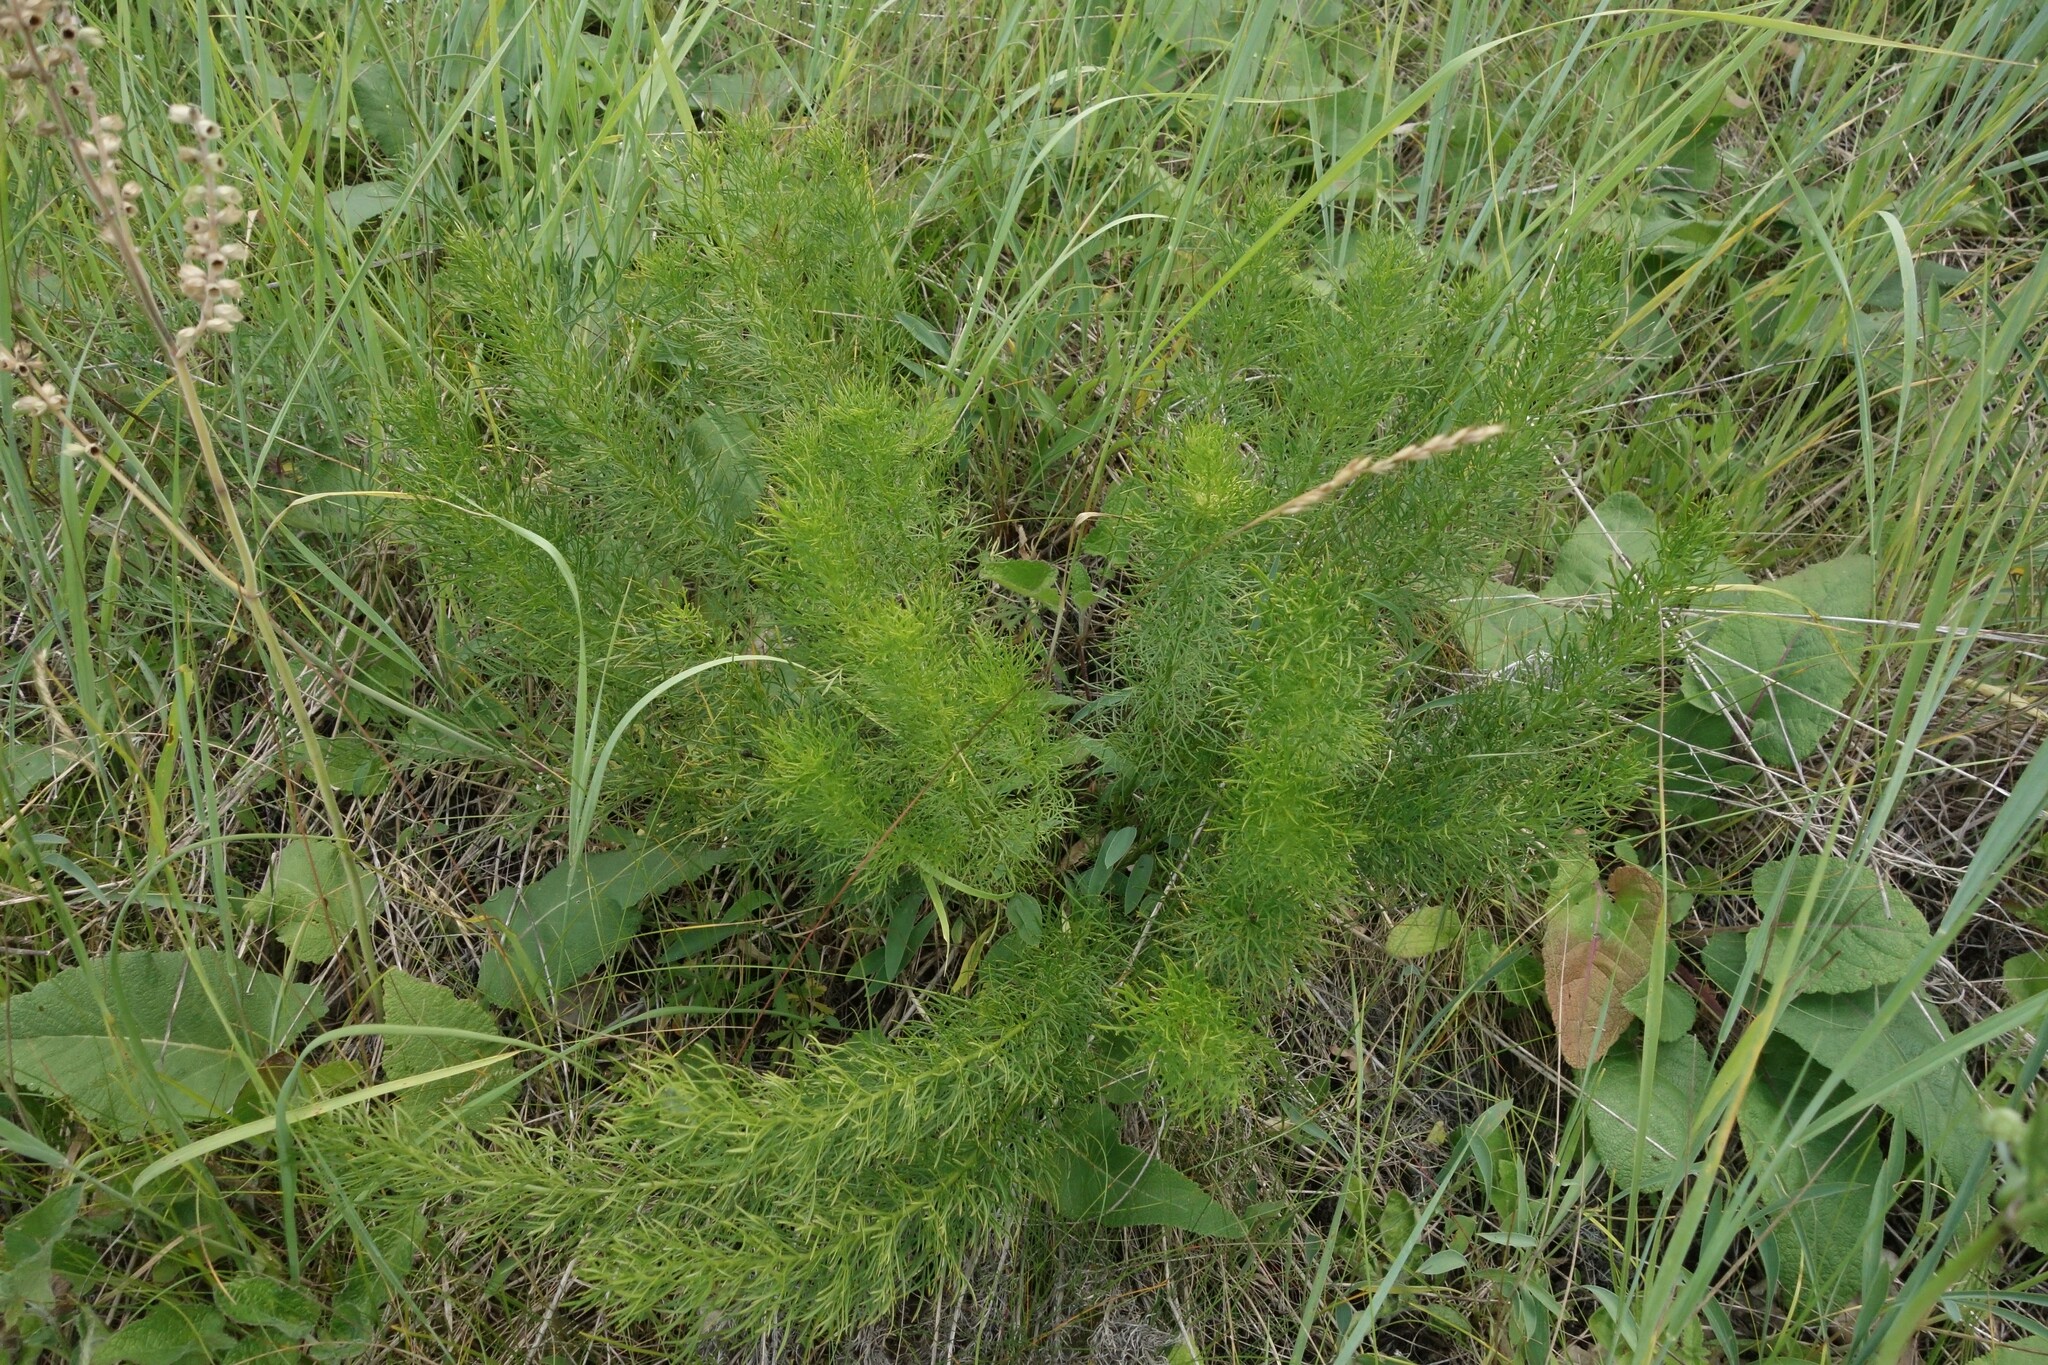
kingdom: Plantae
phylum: Tracheophyta
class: Magnoliopsida
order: Ranunculales
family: Ranunculaceae
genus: Adonis
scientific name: Adonis vernalis
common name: Yellow pheasants-eye
